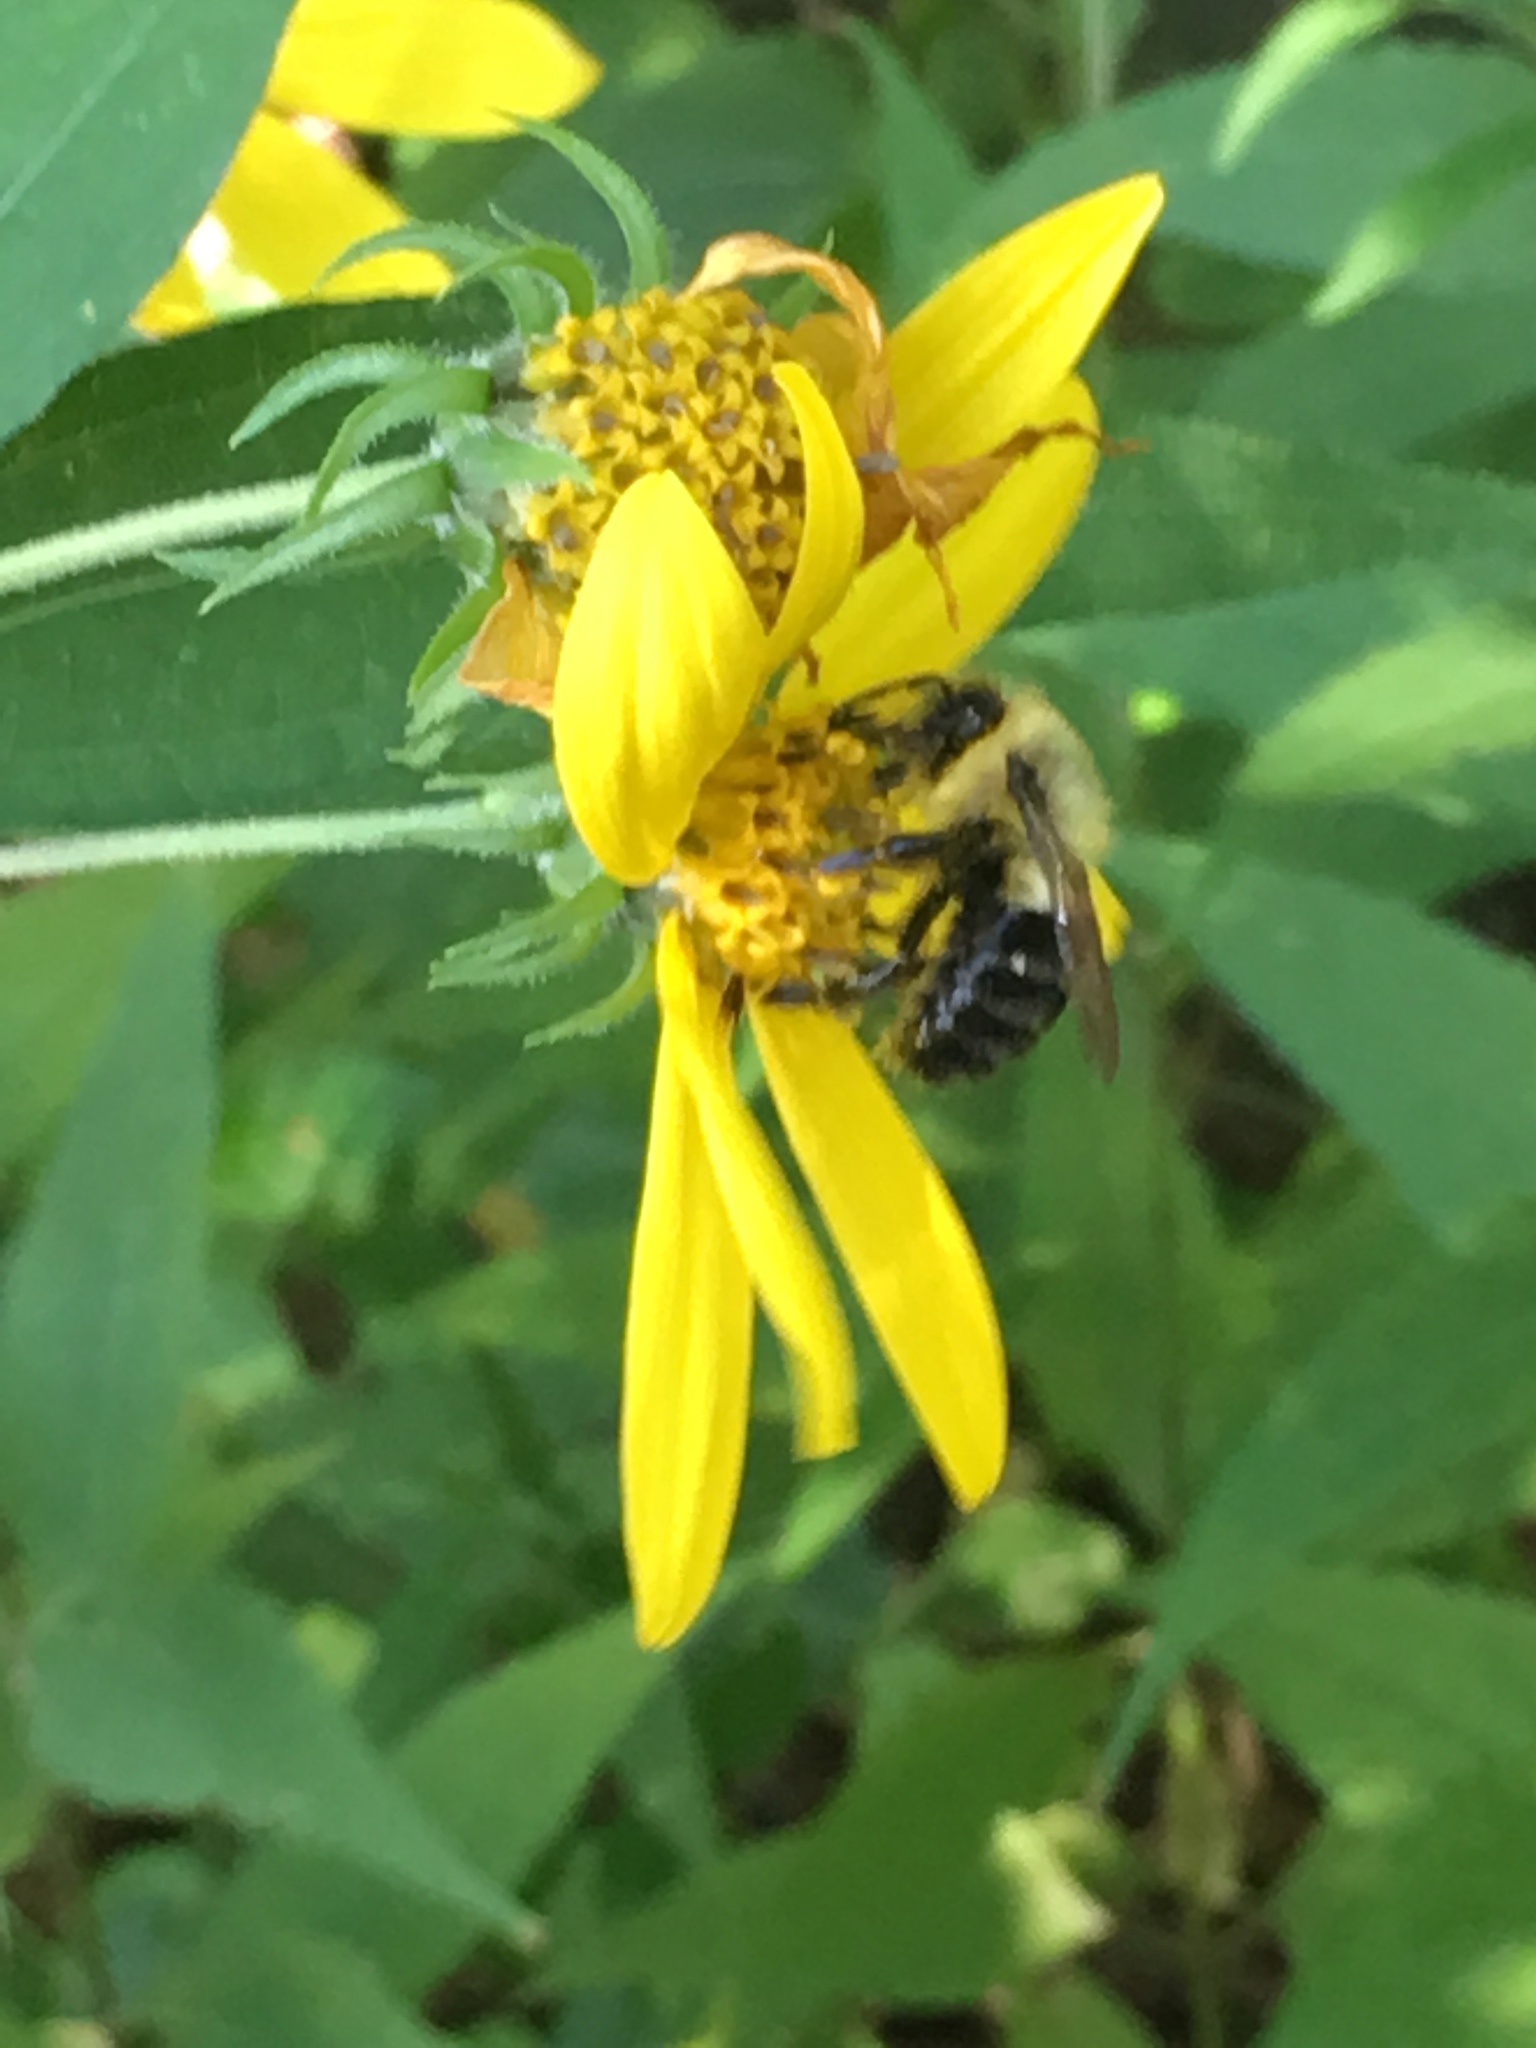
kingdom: Animalia
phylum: Arthropoda
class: Insecta
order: Hymenoptera
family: Apidae
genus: Bombus
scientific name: Bombus impatiens
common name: Common eastern bumble bee
